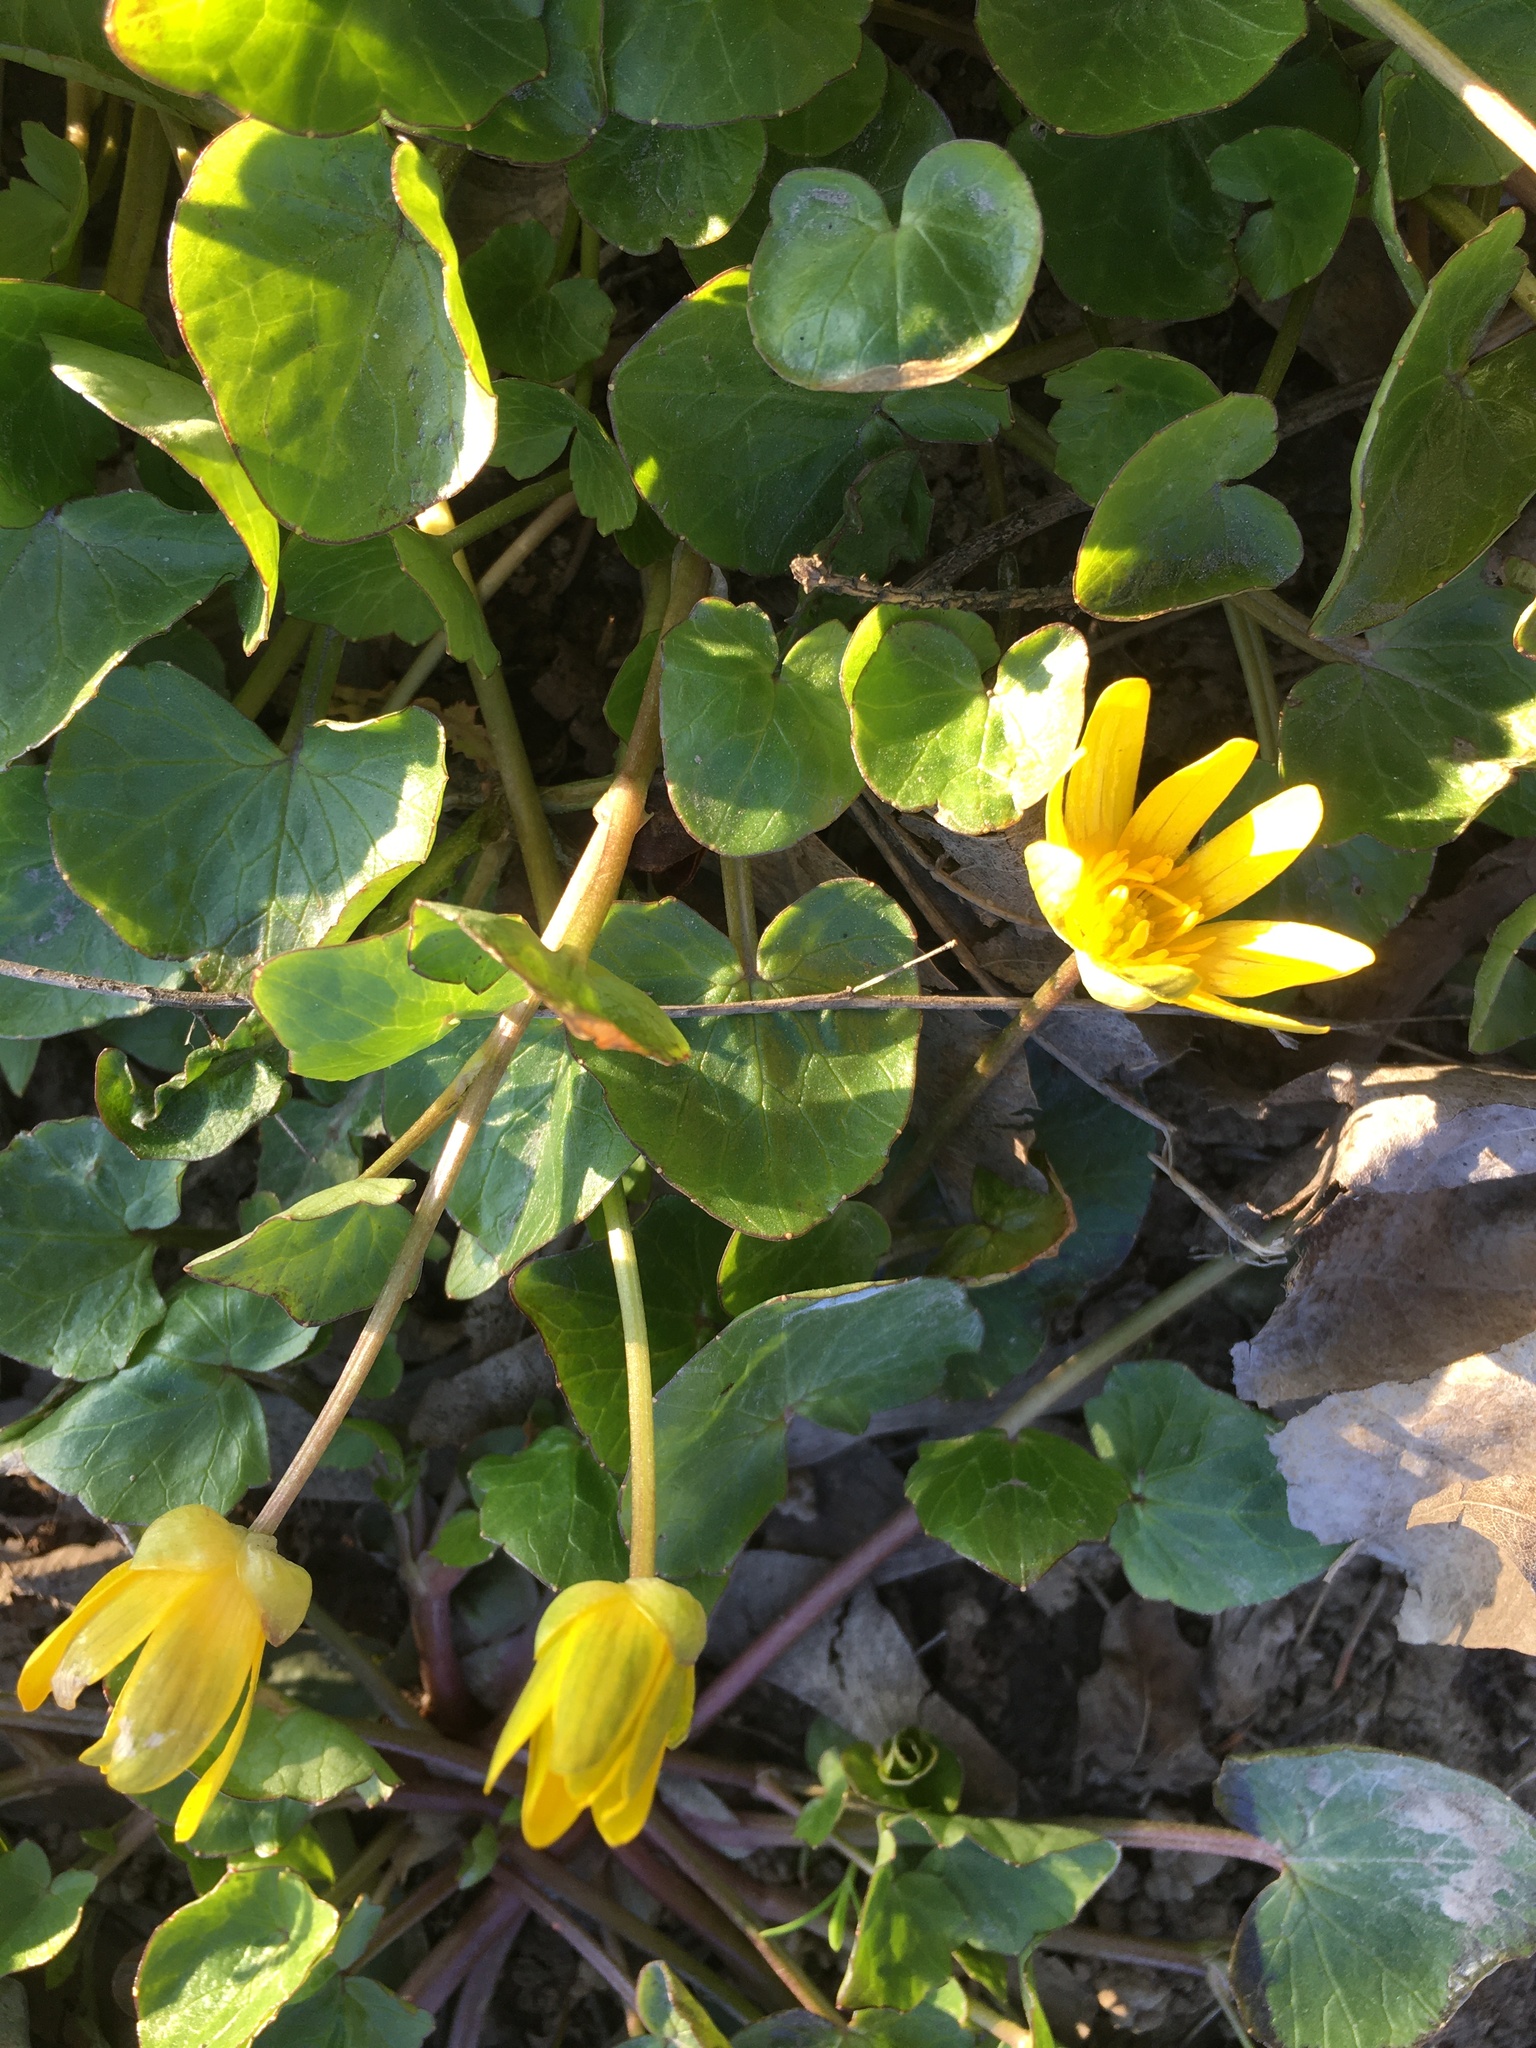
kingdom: Plantae
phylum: Tracheophyta
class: Magnoliopsida
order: Ranunculales
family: Ranunculaceae
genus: Ficaria
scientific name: Ficaria verna
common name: Lesser celandine
